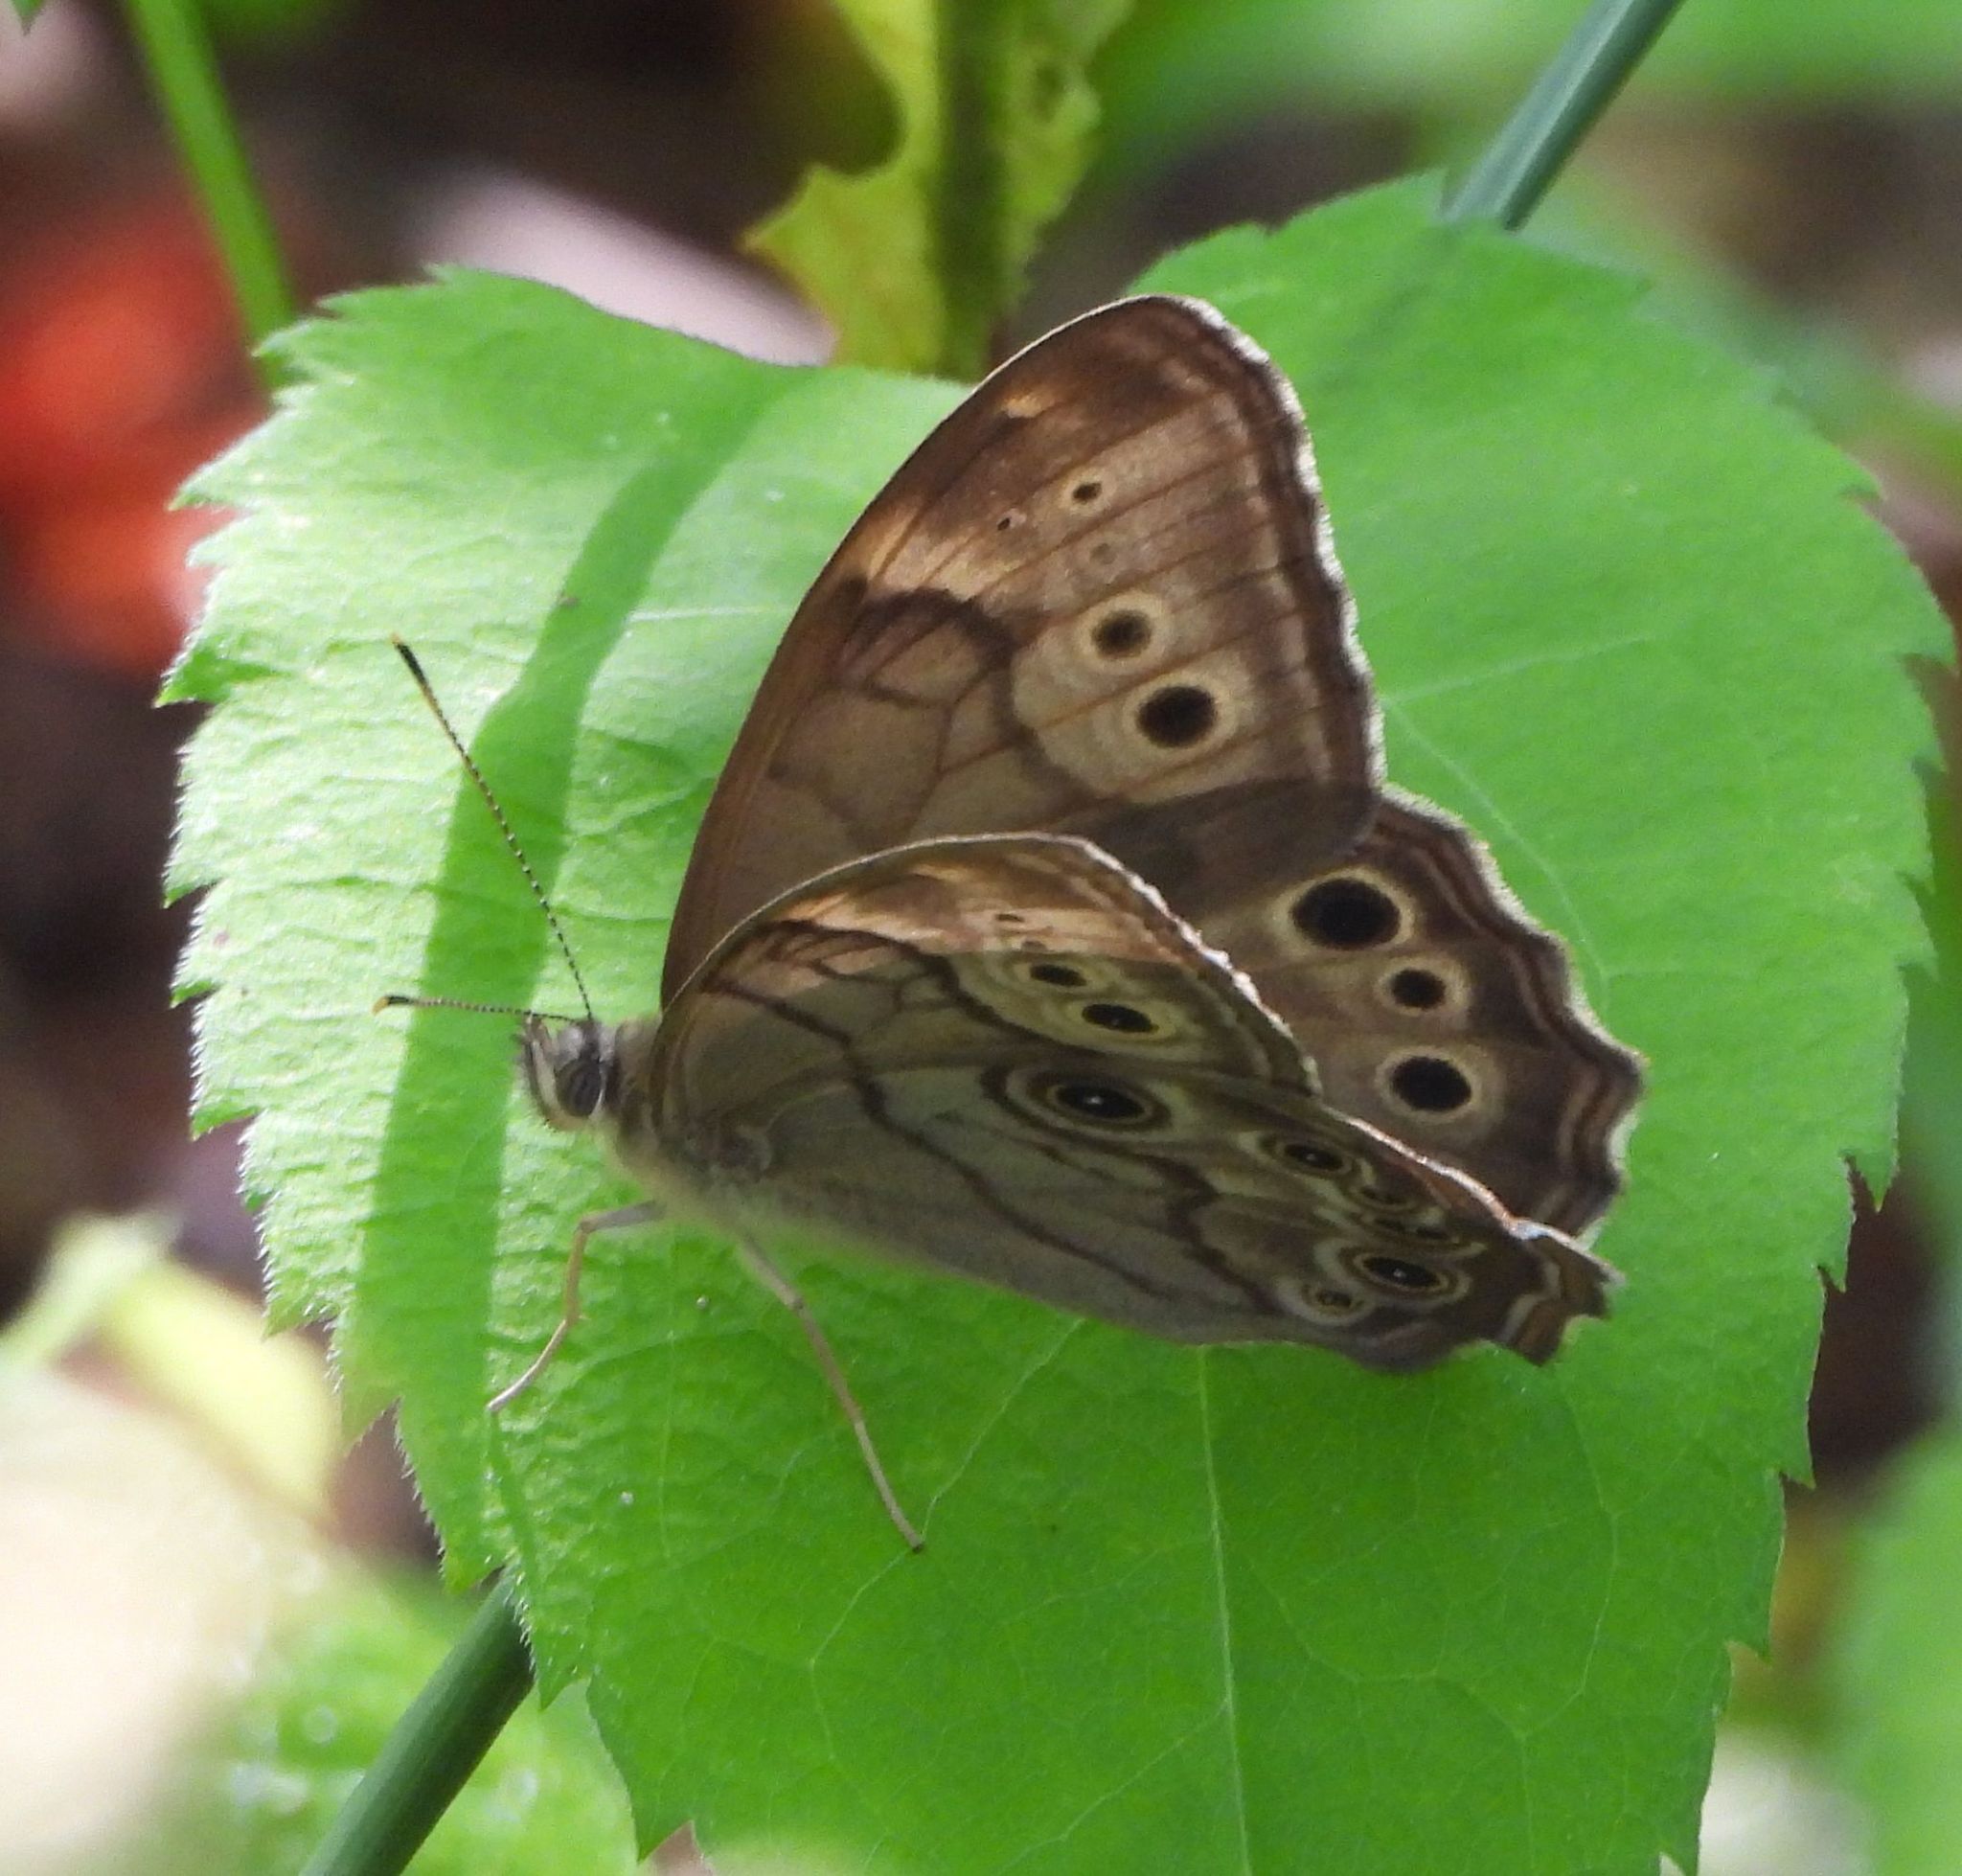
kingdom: Animalia
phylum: Arthropoda
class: Insecta
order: Lepidoptera
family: Nymphalidae
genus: Lethe
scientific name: Lethe anthedon
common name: Northern pearly-eye
